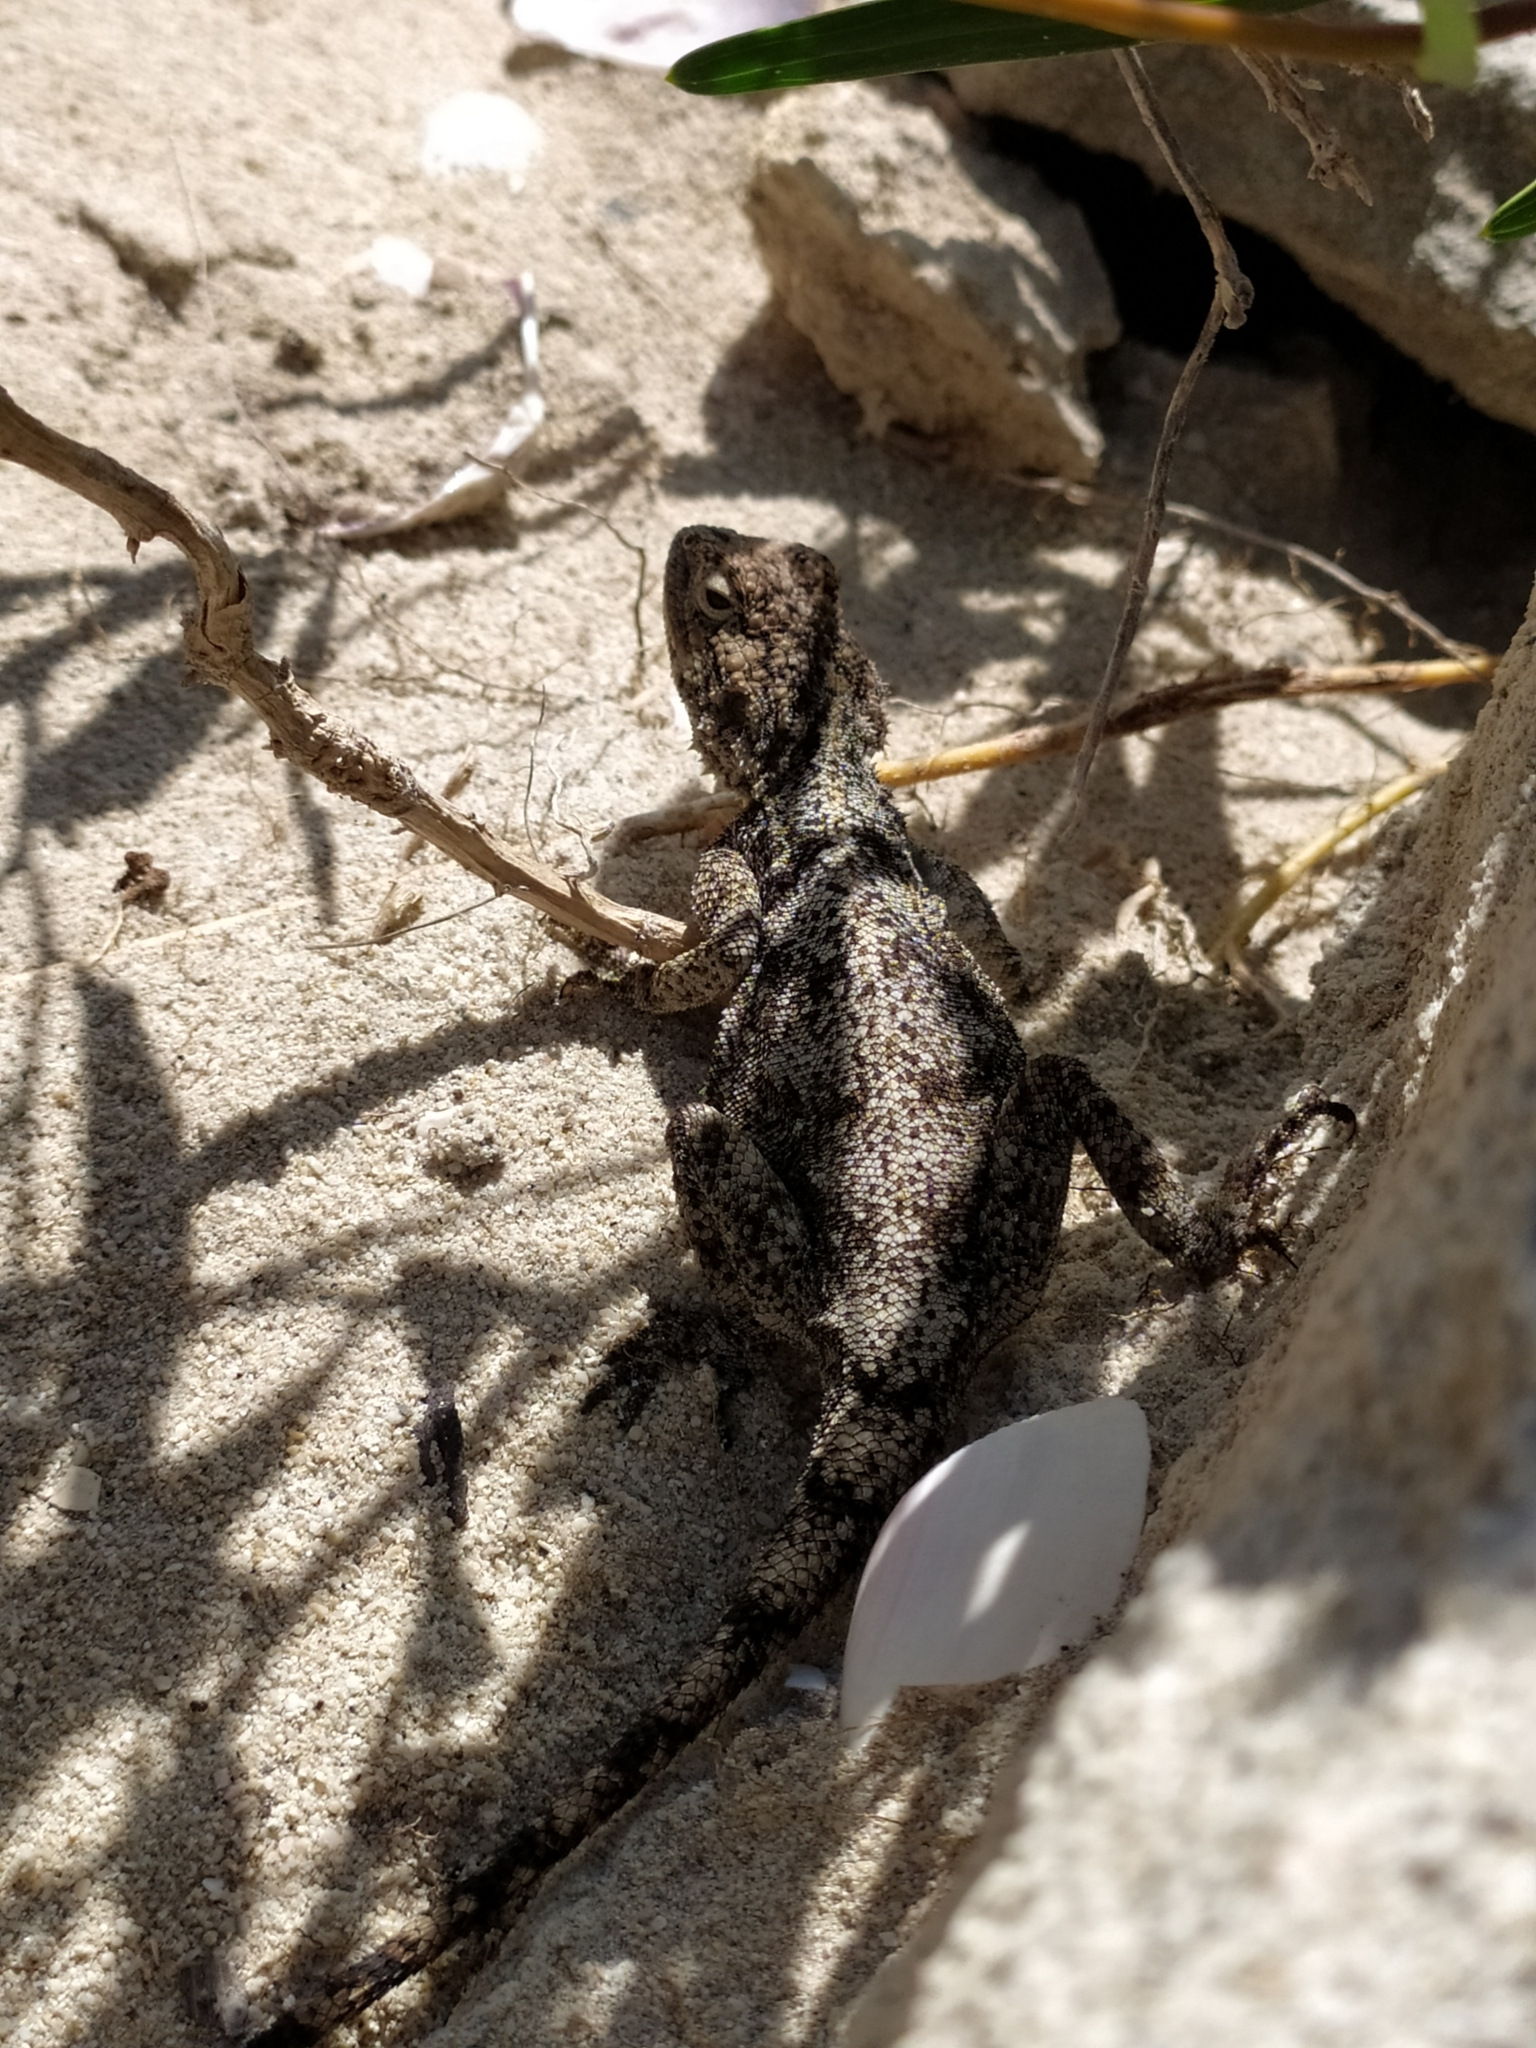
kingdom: Animalia
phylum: Chordata
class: Squamata
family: Agamidae
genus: Agama
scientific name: Agama atra
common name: Southern african rock agama
